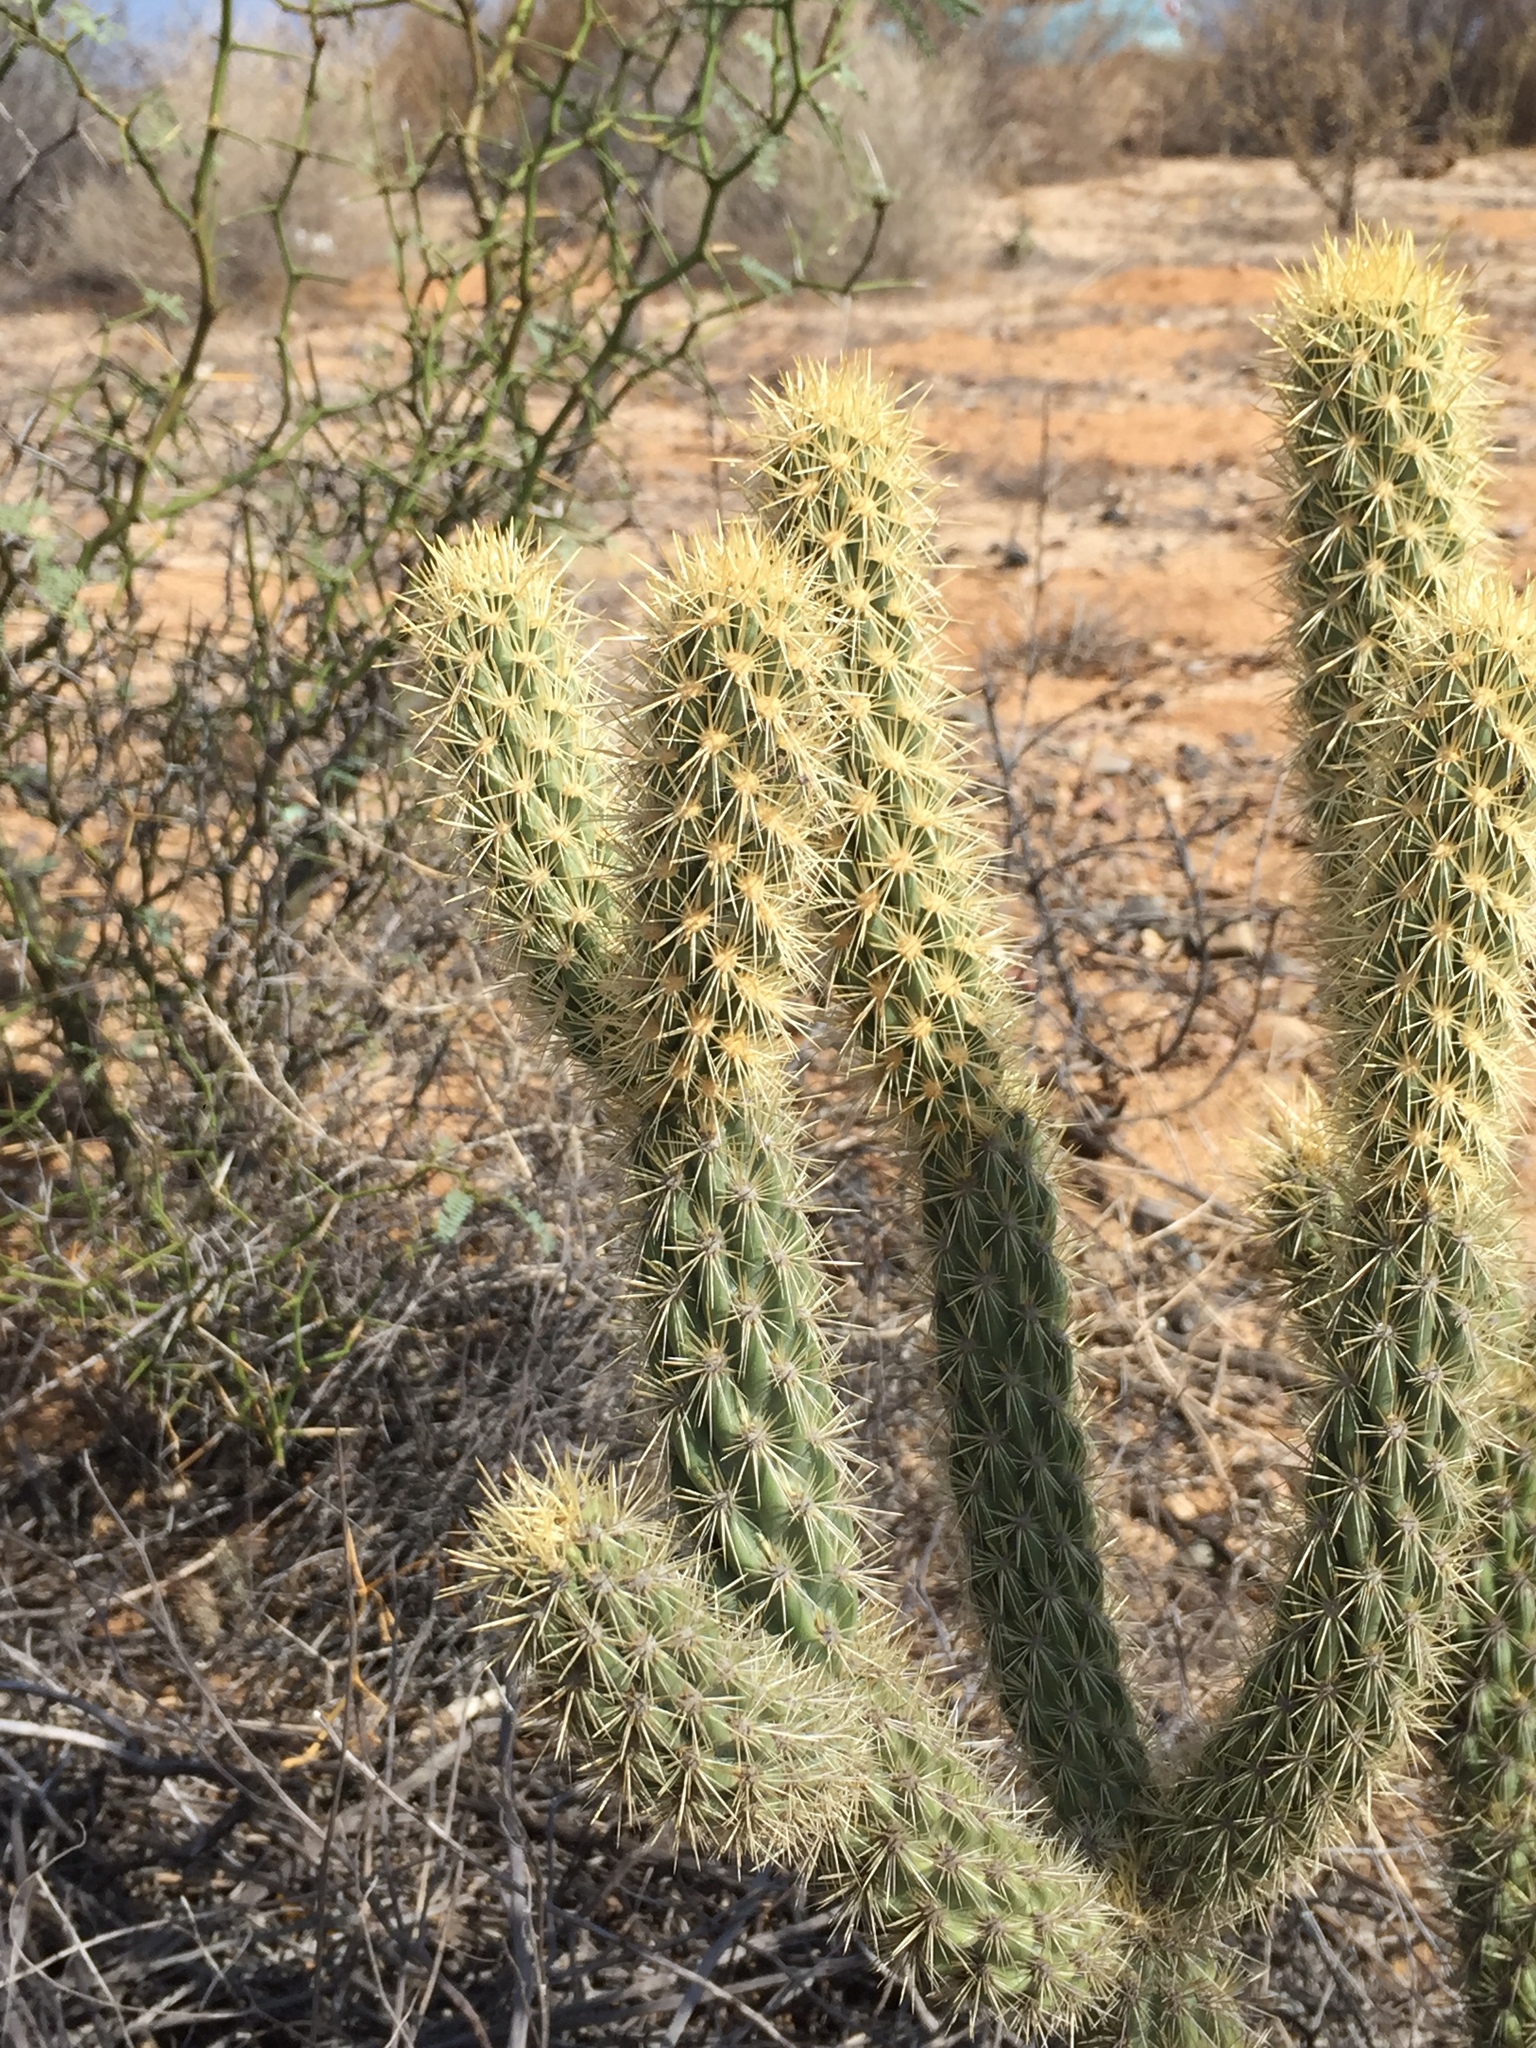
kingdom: Plantae
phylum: Tracheophyta
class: Magnoliopsida
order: Caryophyllales
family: Cactaceae
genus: Cylindropuntia
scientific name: Cylindropuntia ganderi
